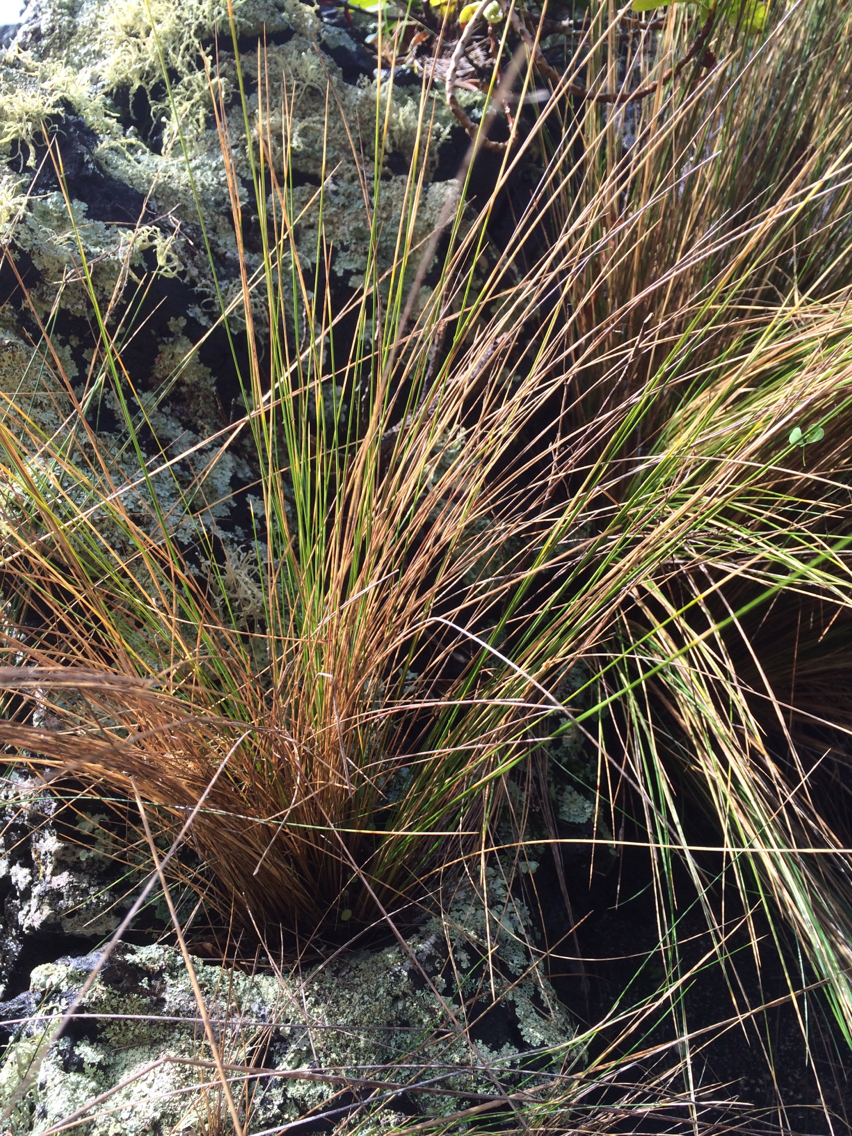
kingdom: Plantae
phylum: Tracheophyta
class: Liliopsida
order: Poales
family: Poaceae
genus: Austrostipa
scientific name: Austrostipa stipoides
